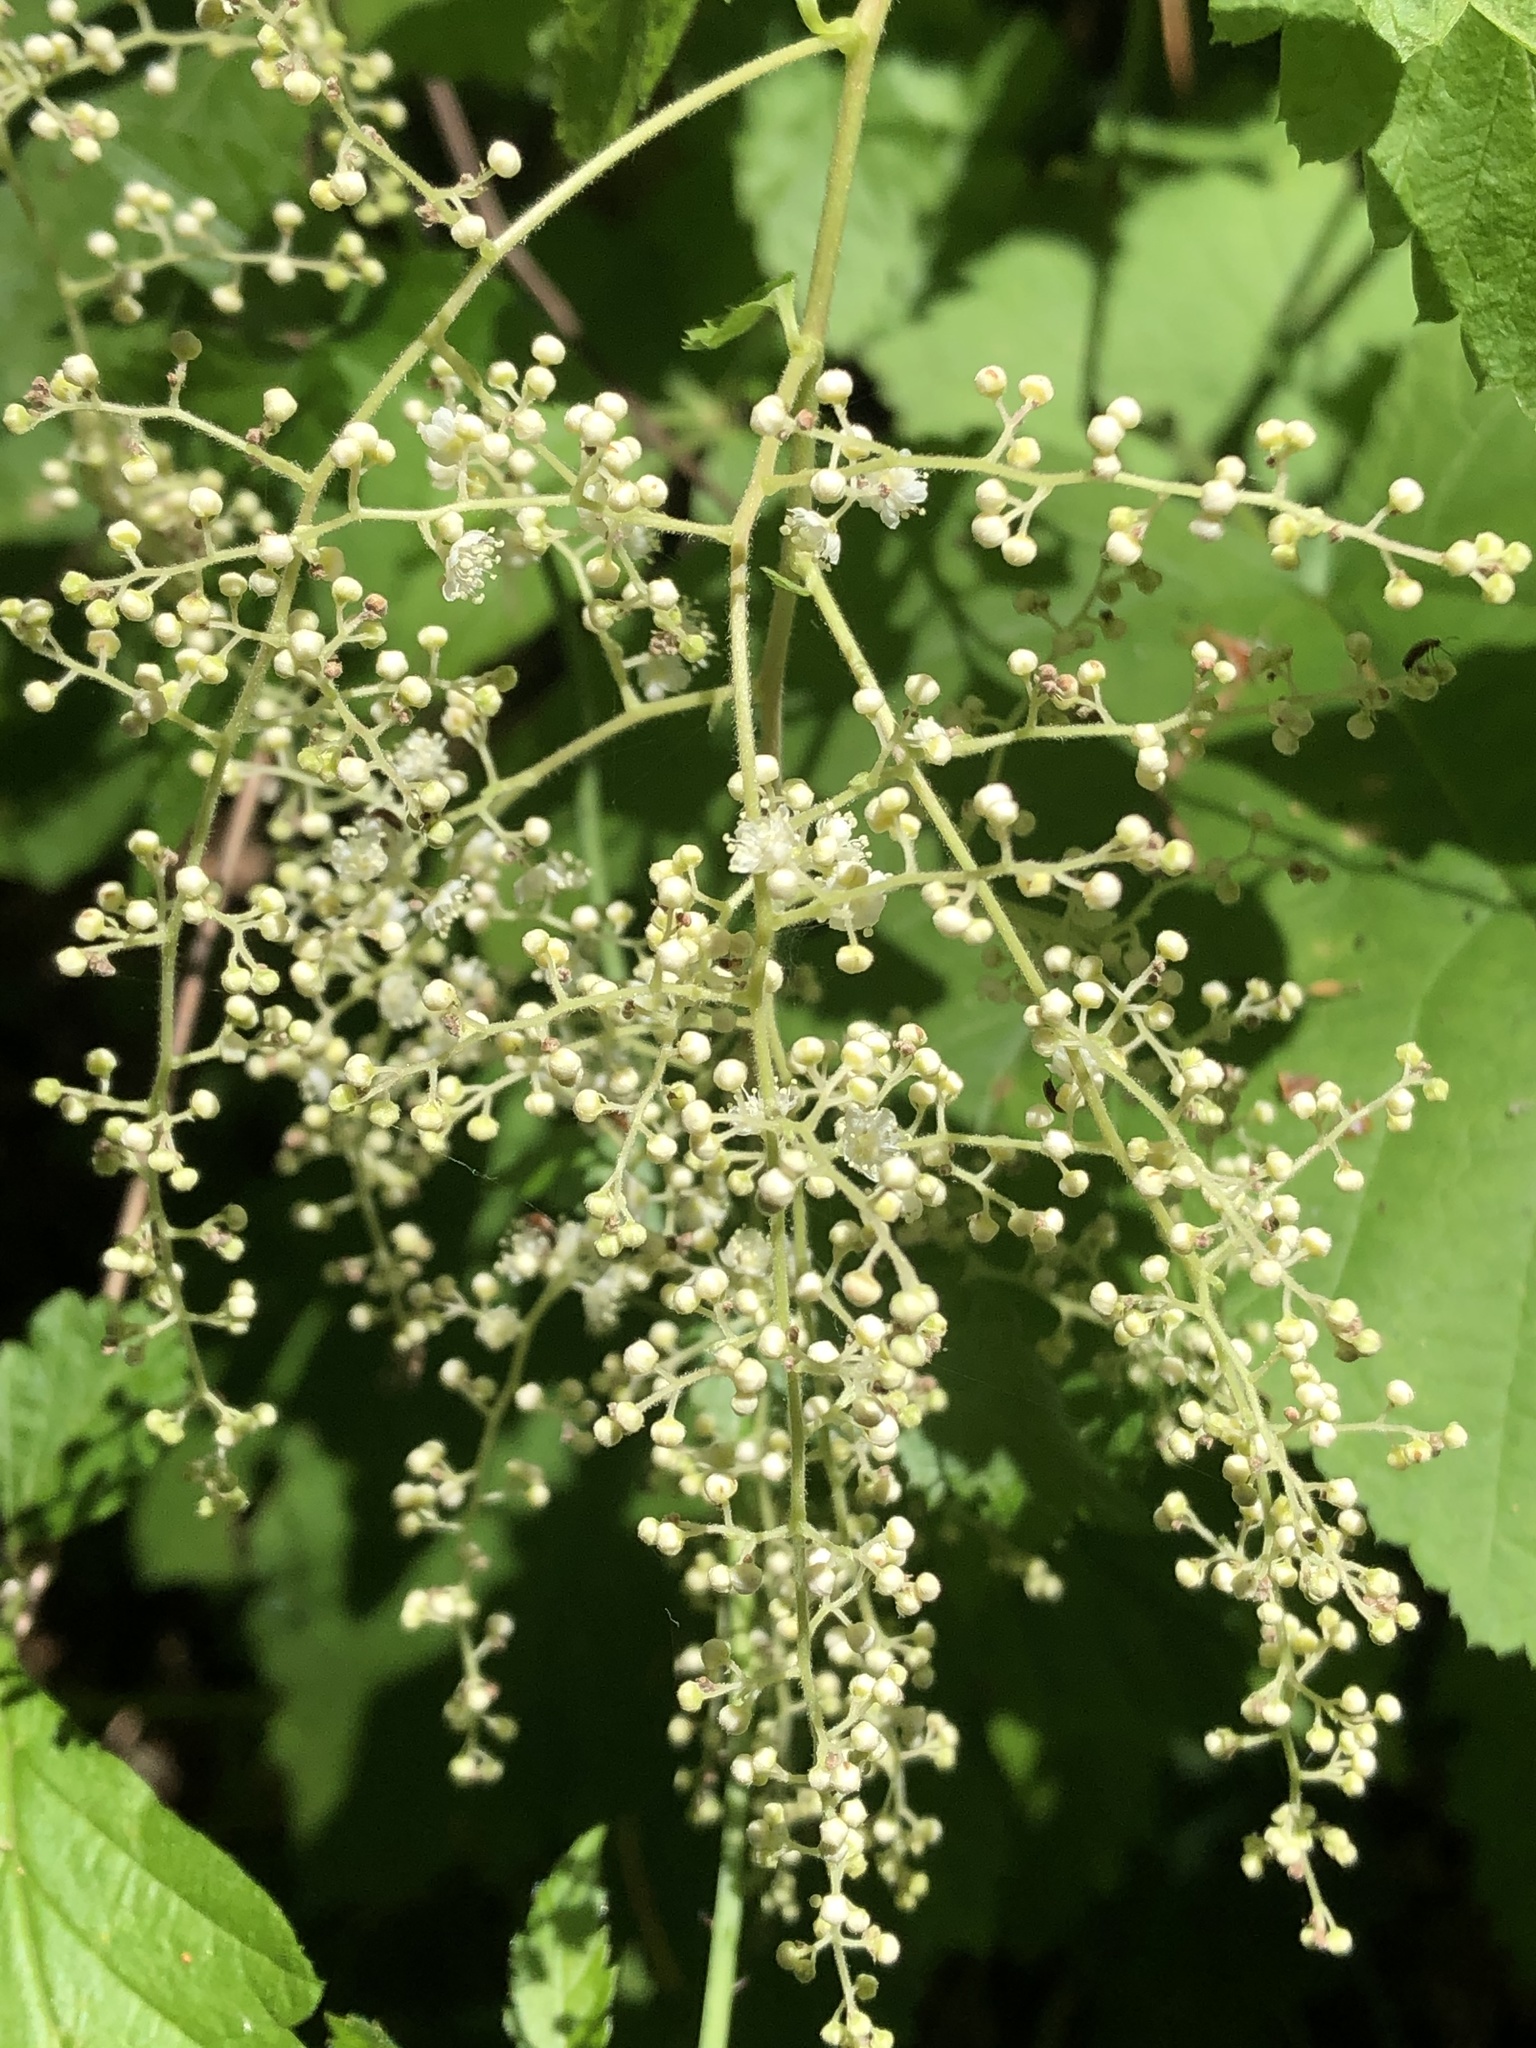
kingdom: Plantae
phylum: Tracheophyta
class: Magnoliopsida
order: Rosales
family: Rosaceae
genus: Holodiscus
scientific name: Holodiscus discolor
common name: Oceanspray
